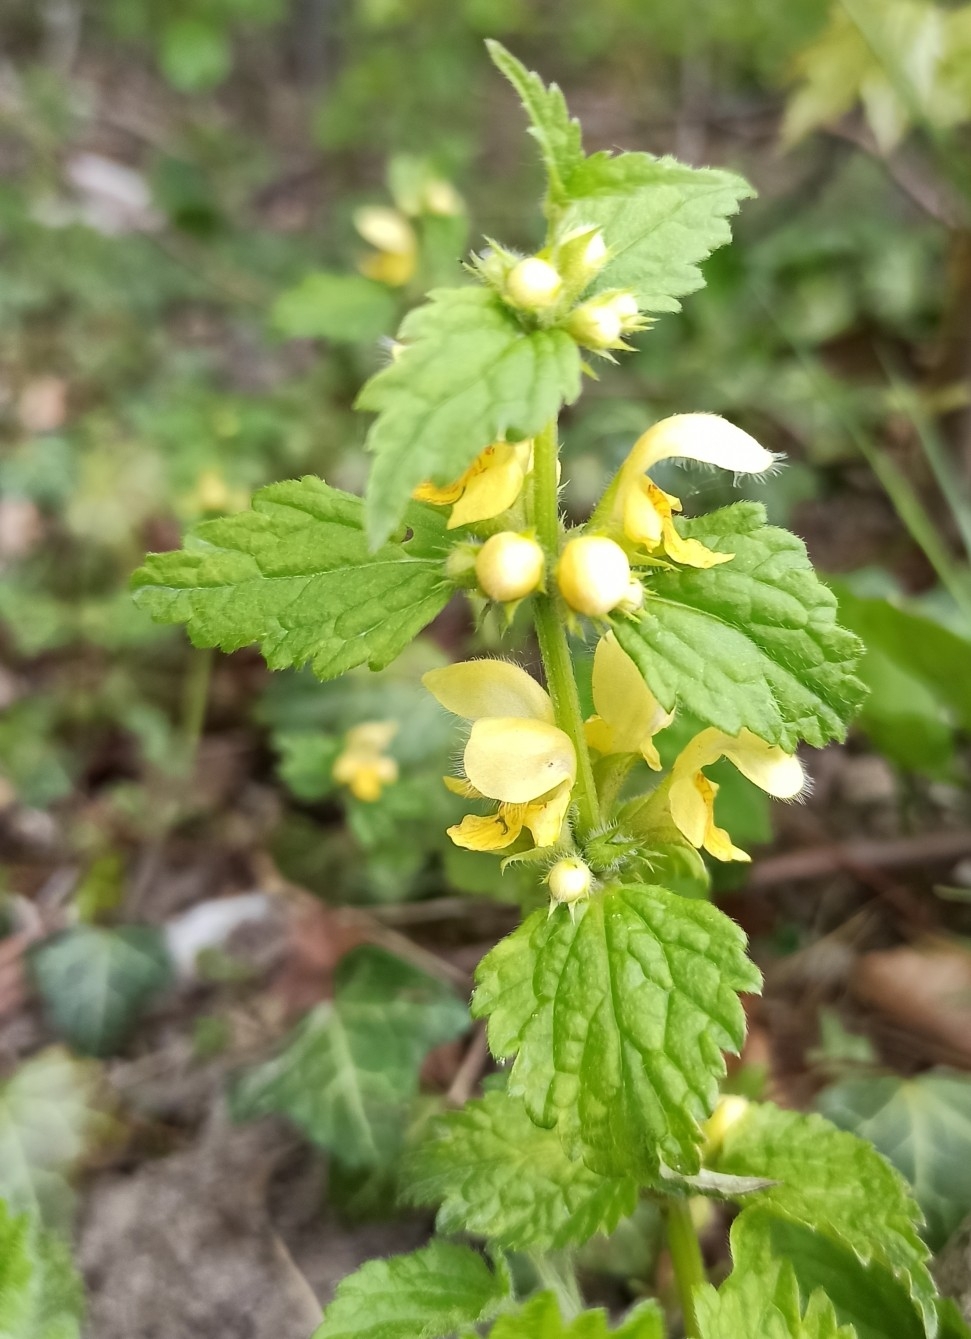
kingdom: Plantae
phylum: Tracheophyta
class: Magnoliopsida
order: Lamiales
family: Lamiaceae
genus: Lamium
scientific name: Lamium galeobdolon
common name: Yellow archangel
